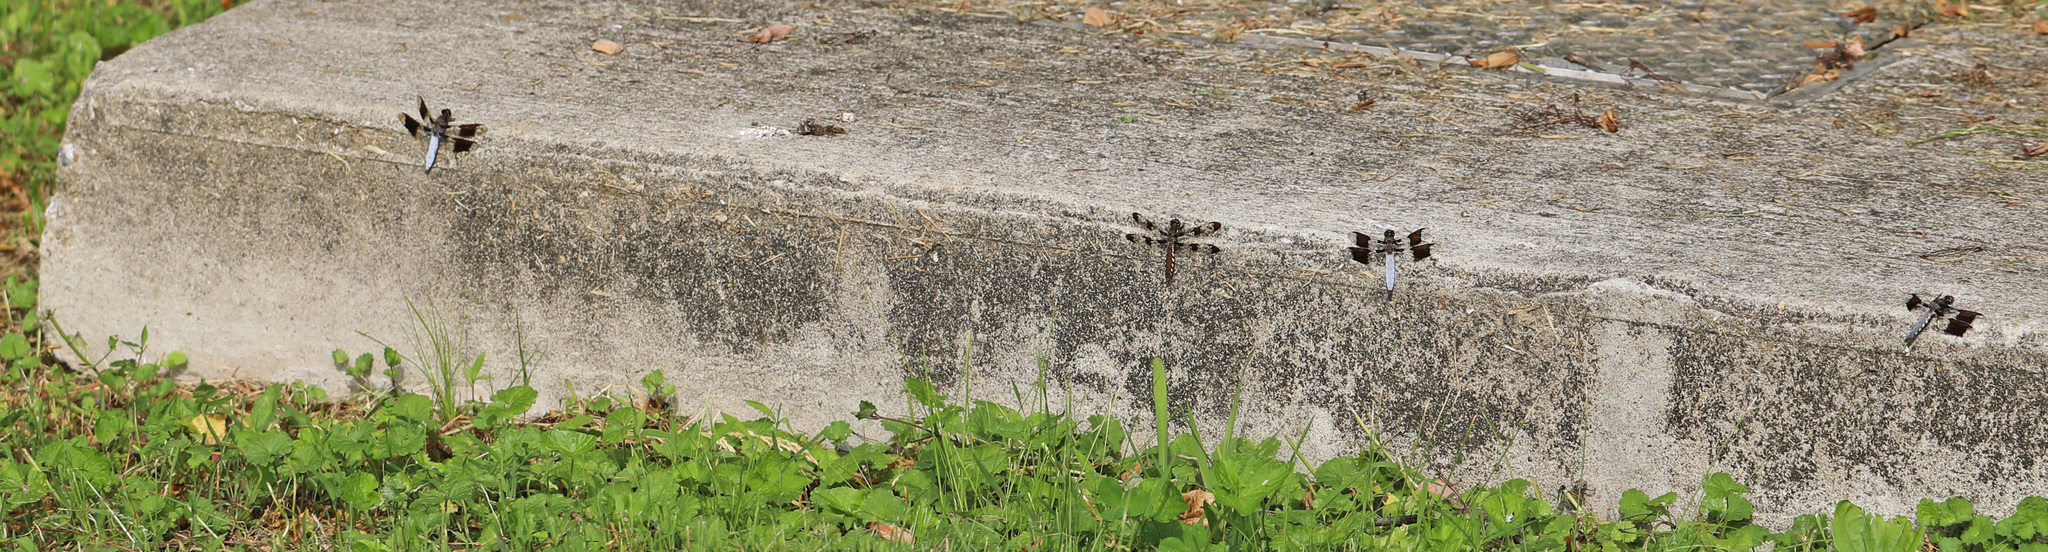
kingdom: Animalia
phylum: Arthropoda
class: Insecta
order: Odonata
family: Libellulidae
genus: Plathemis
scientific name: Plathemis lydia
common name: Common whitetail
